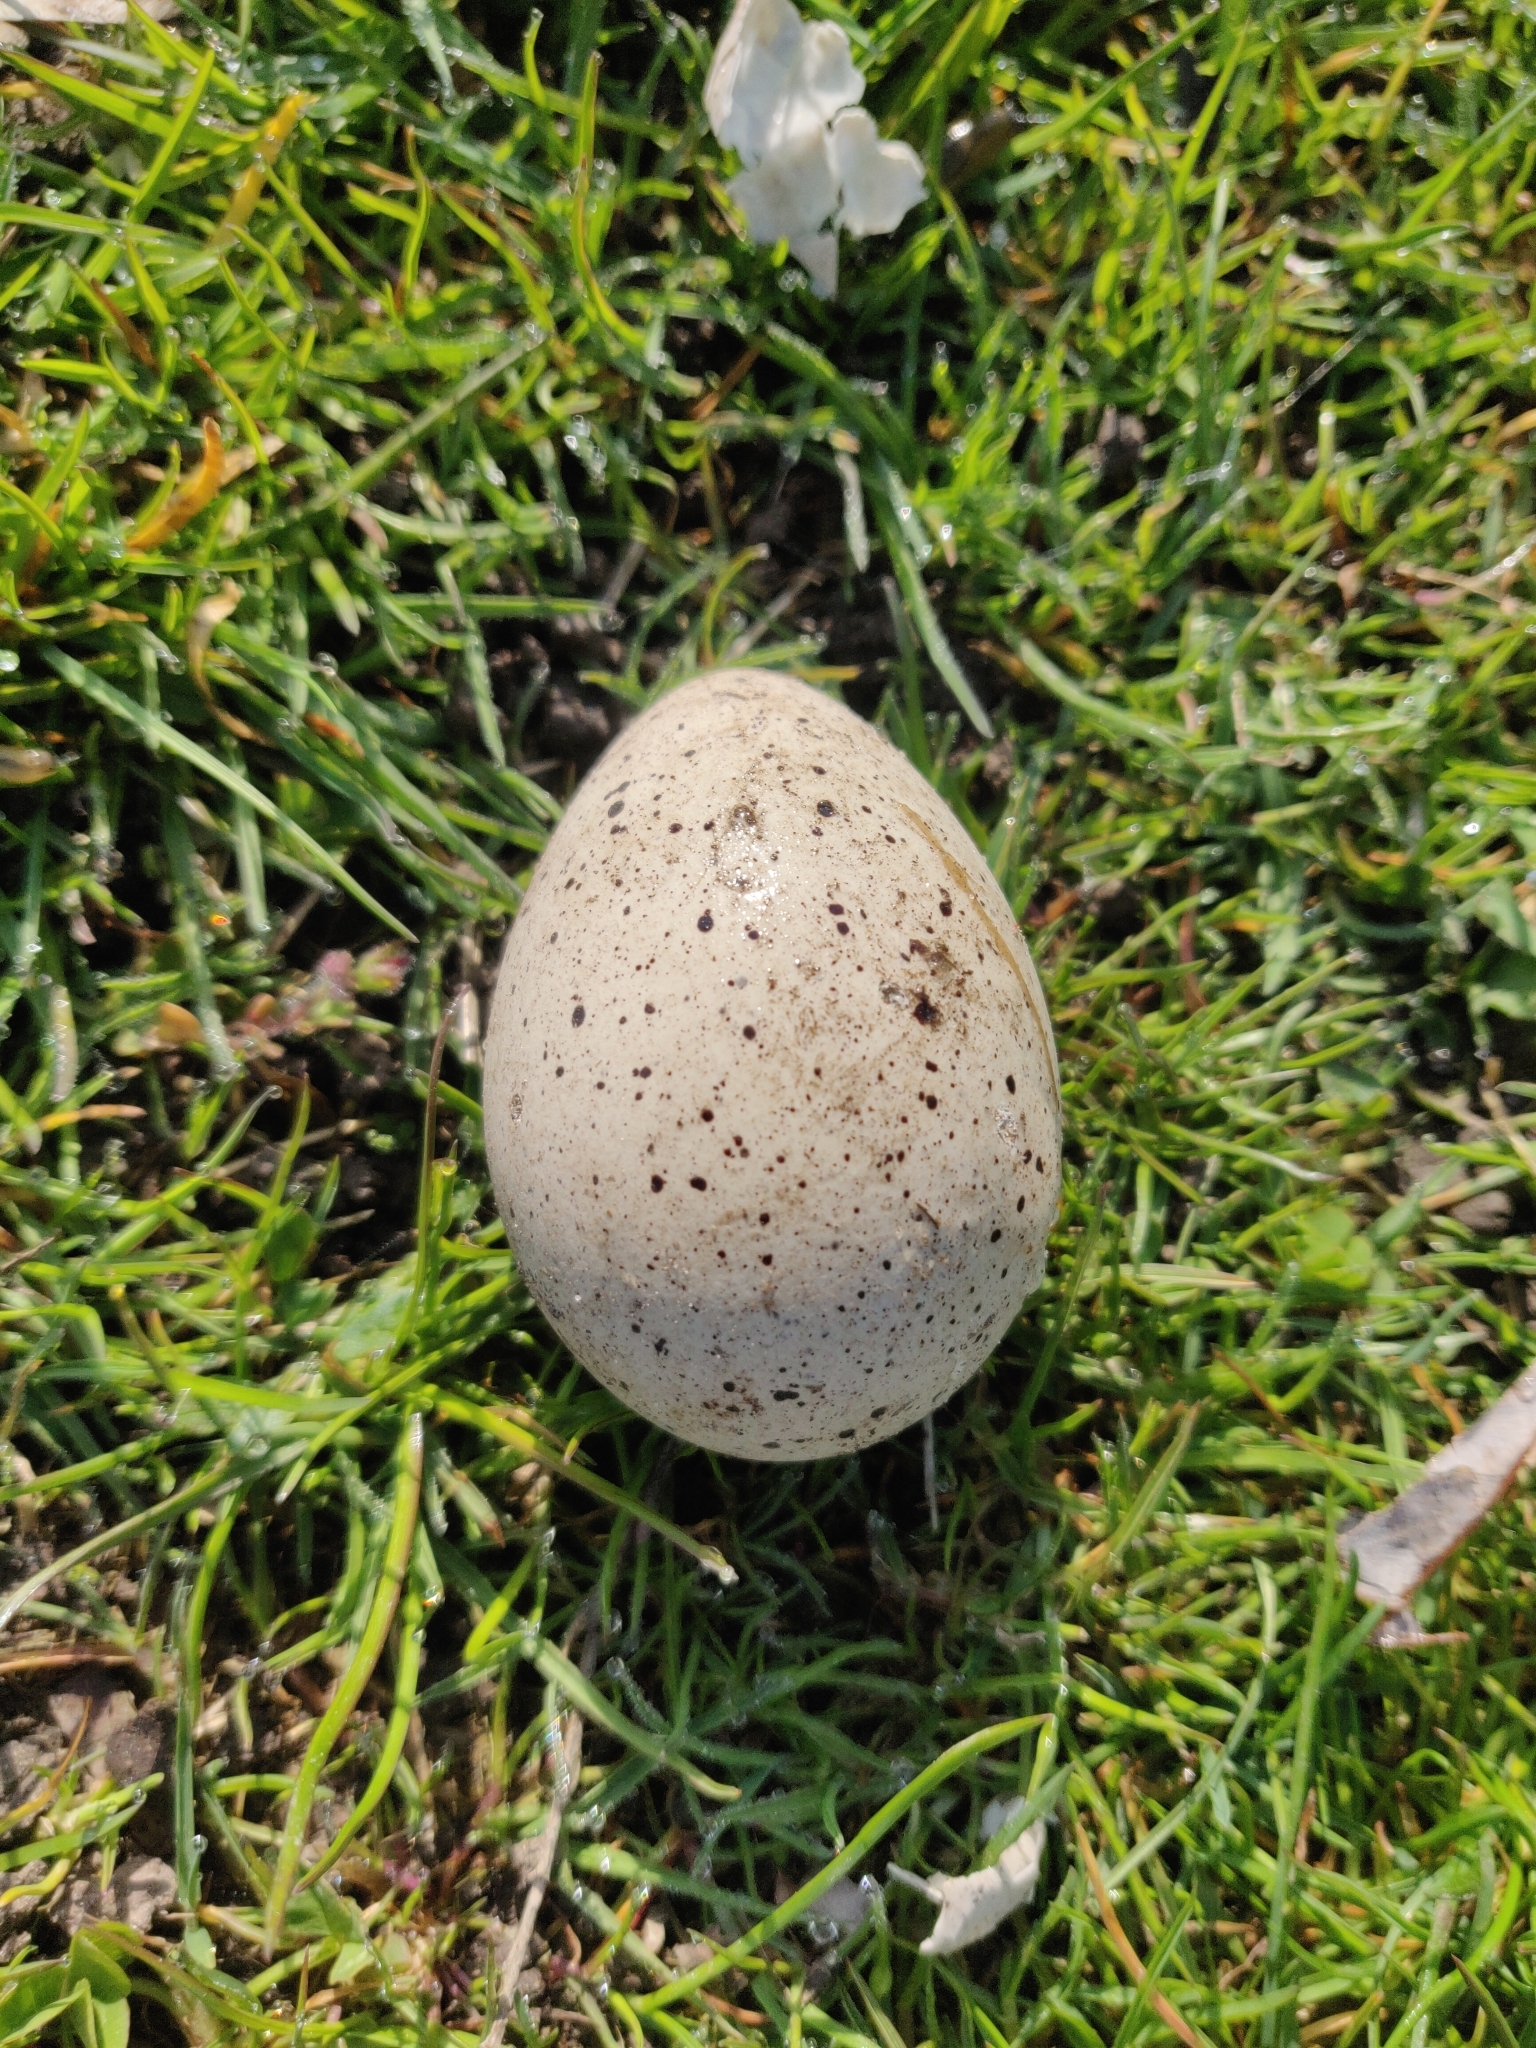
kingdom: Animalia
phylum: Chordata
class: Aves
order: Gruiformes
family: Rallidae
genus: Fulica
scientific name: Fulica atra
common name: Eurasian coot
